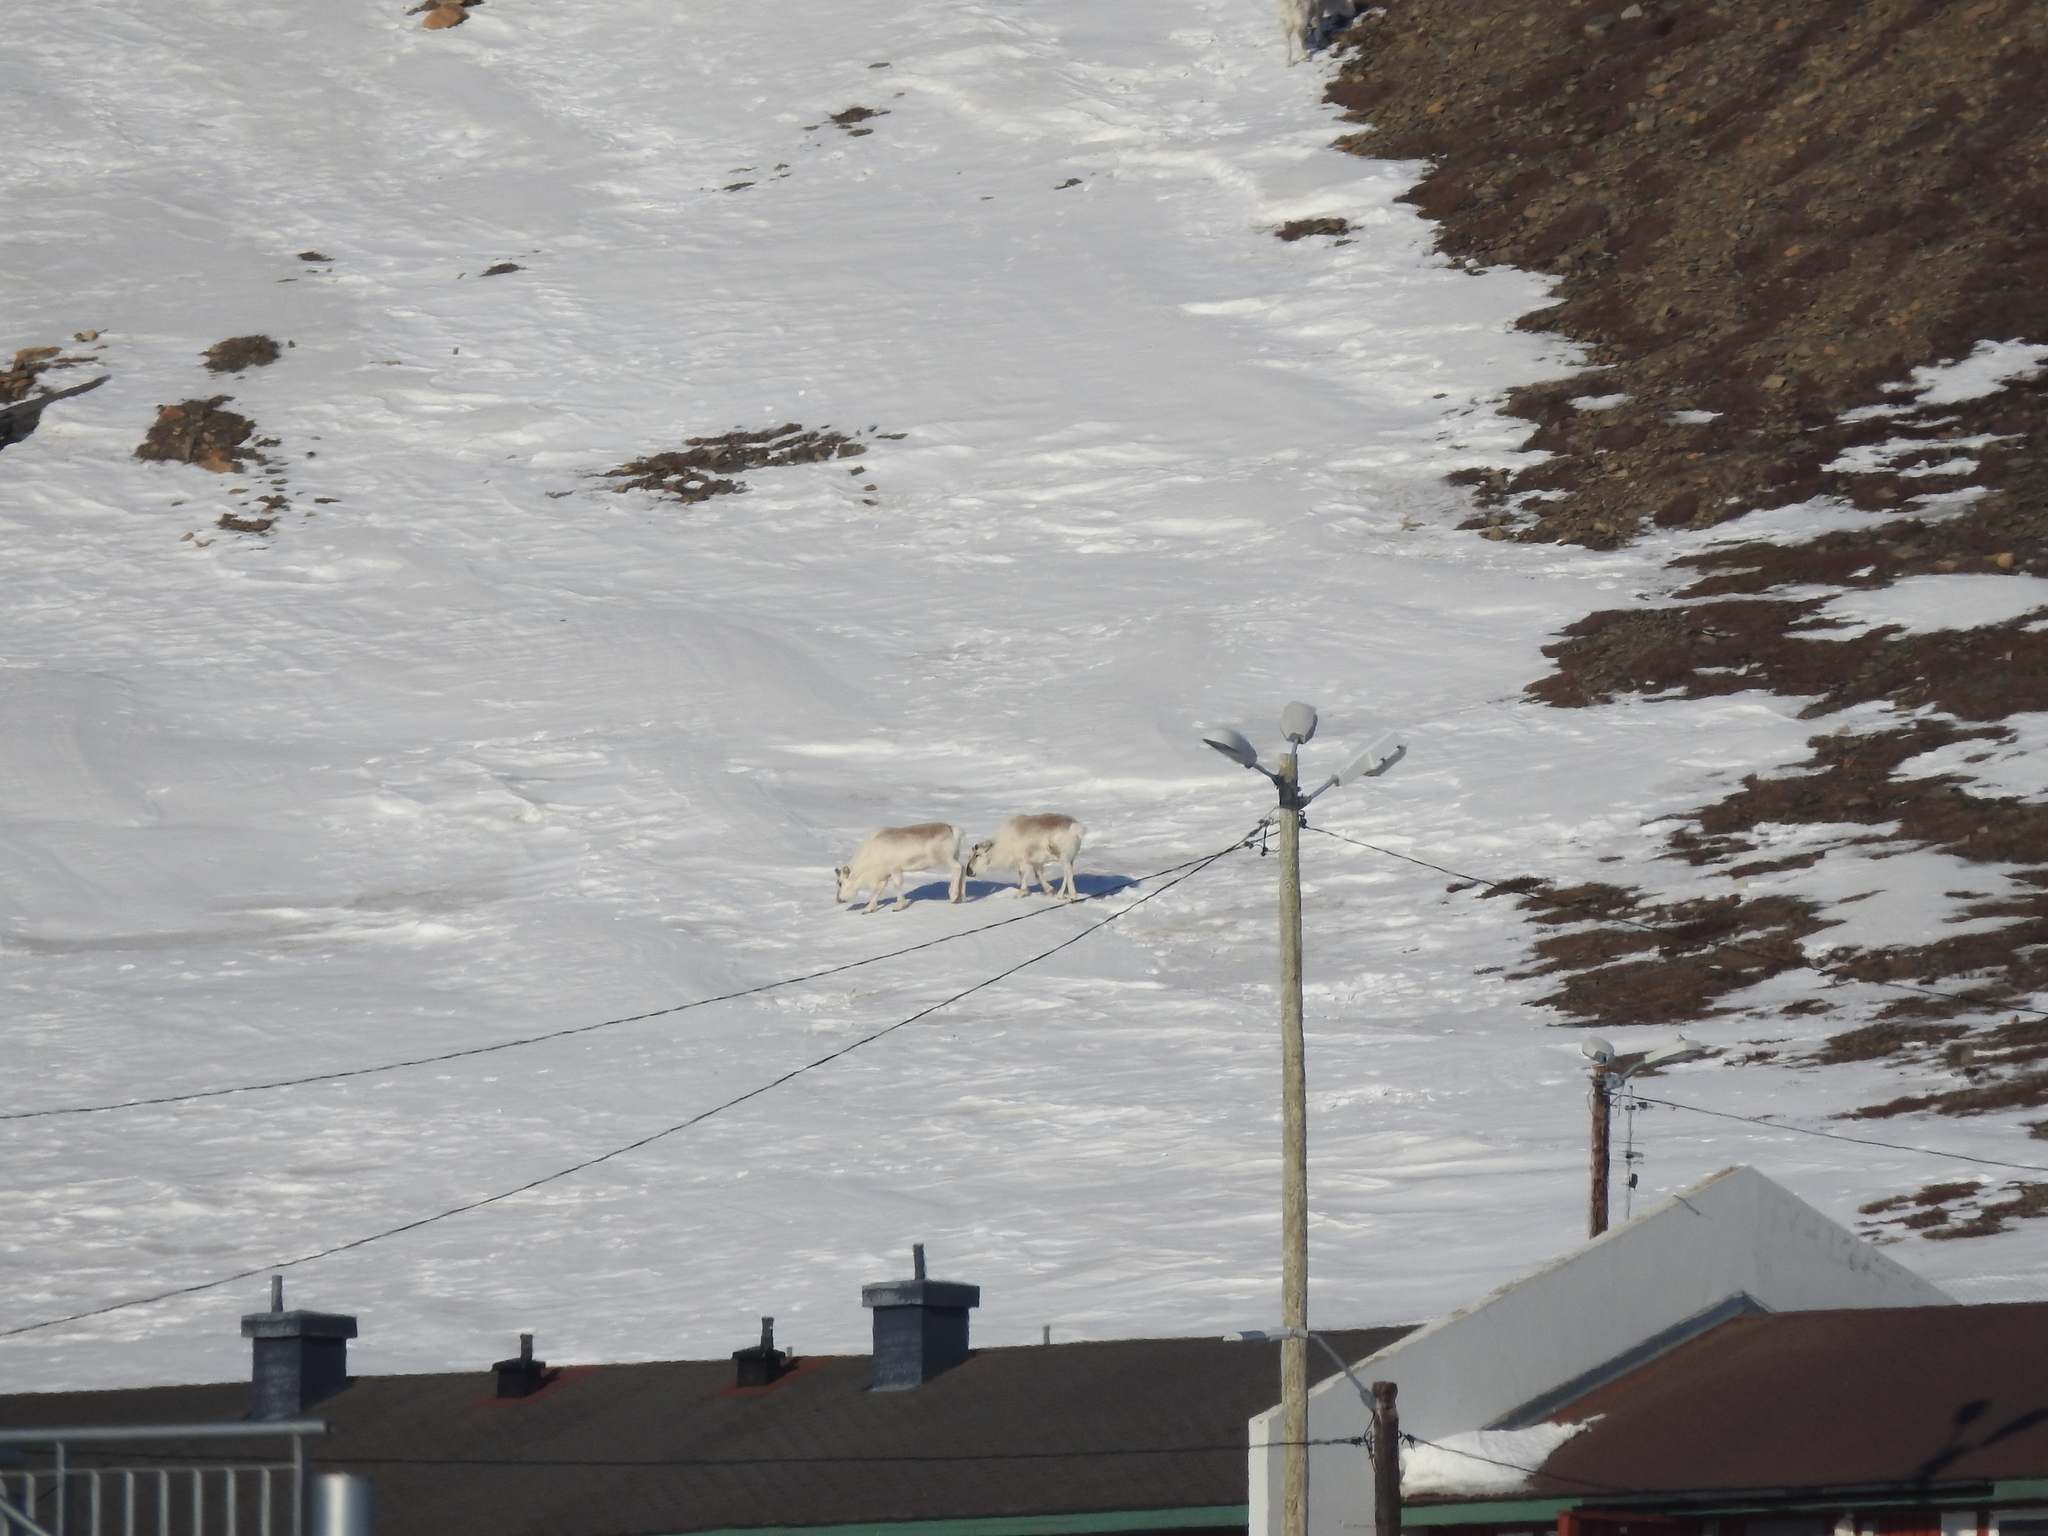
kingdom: Animalia
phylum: Chordata
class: Mammalia
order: Artiodactyla
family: Cervidae
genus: Rangifer
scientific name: Rangifer tarandus
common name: Reindeer
